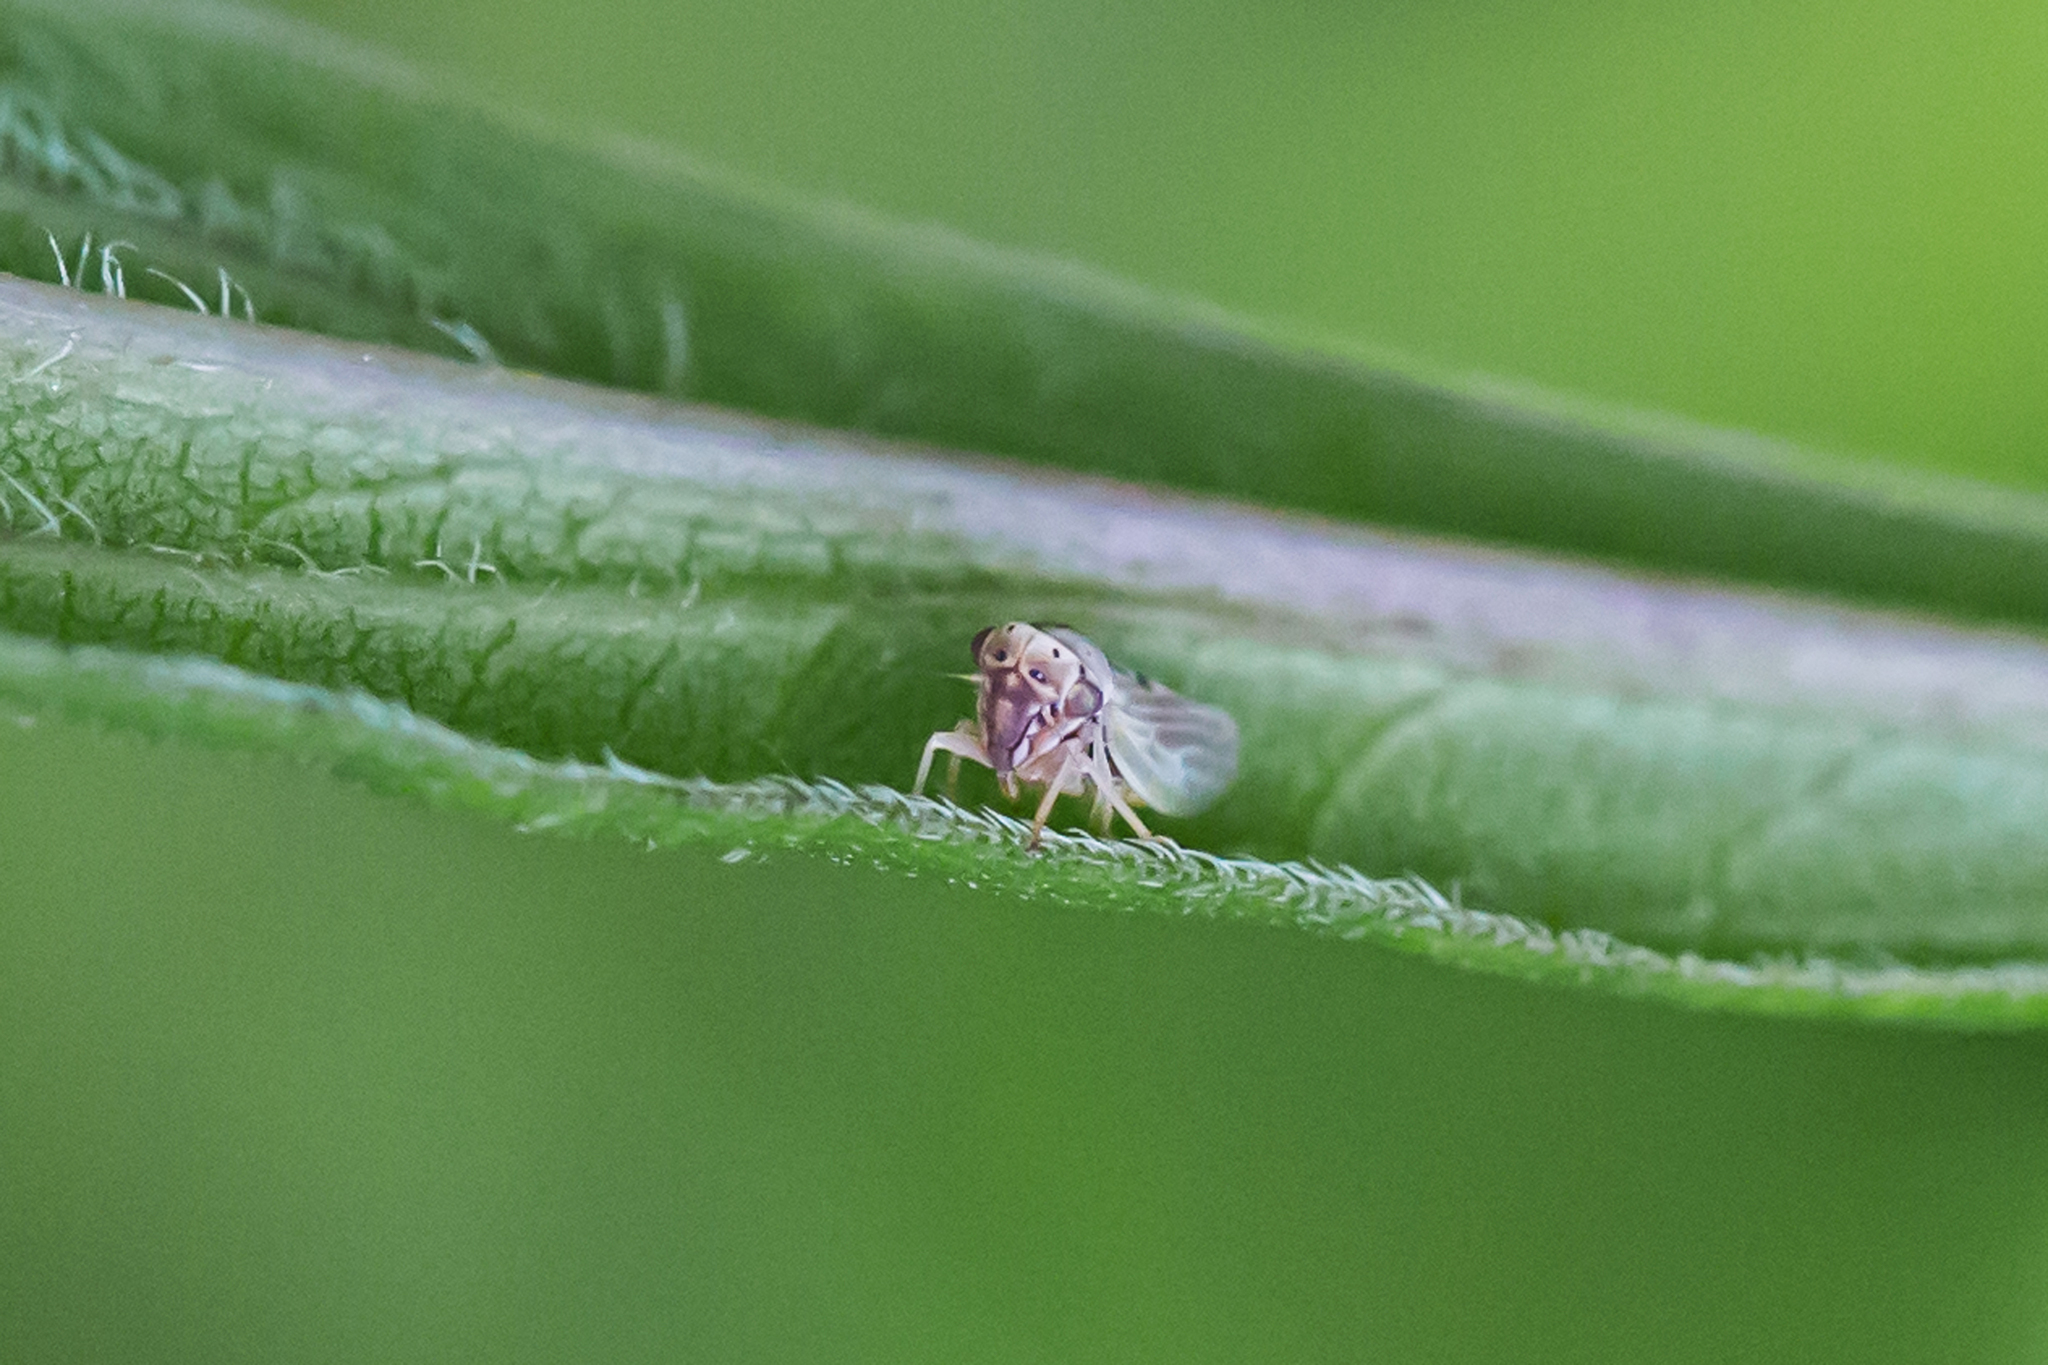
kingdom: Animalia
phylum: Arthropoda
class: Insecta
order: Hemiptera
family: Cicadellidae
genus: Agalliopsis
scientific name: Agalliopsis ancistra
